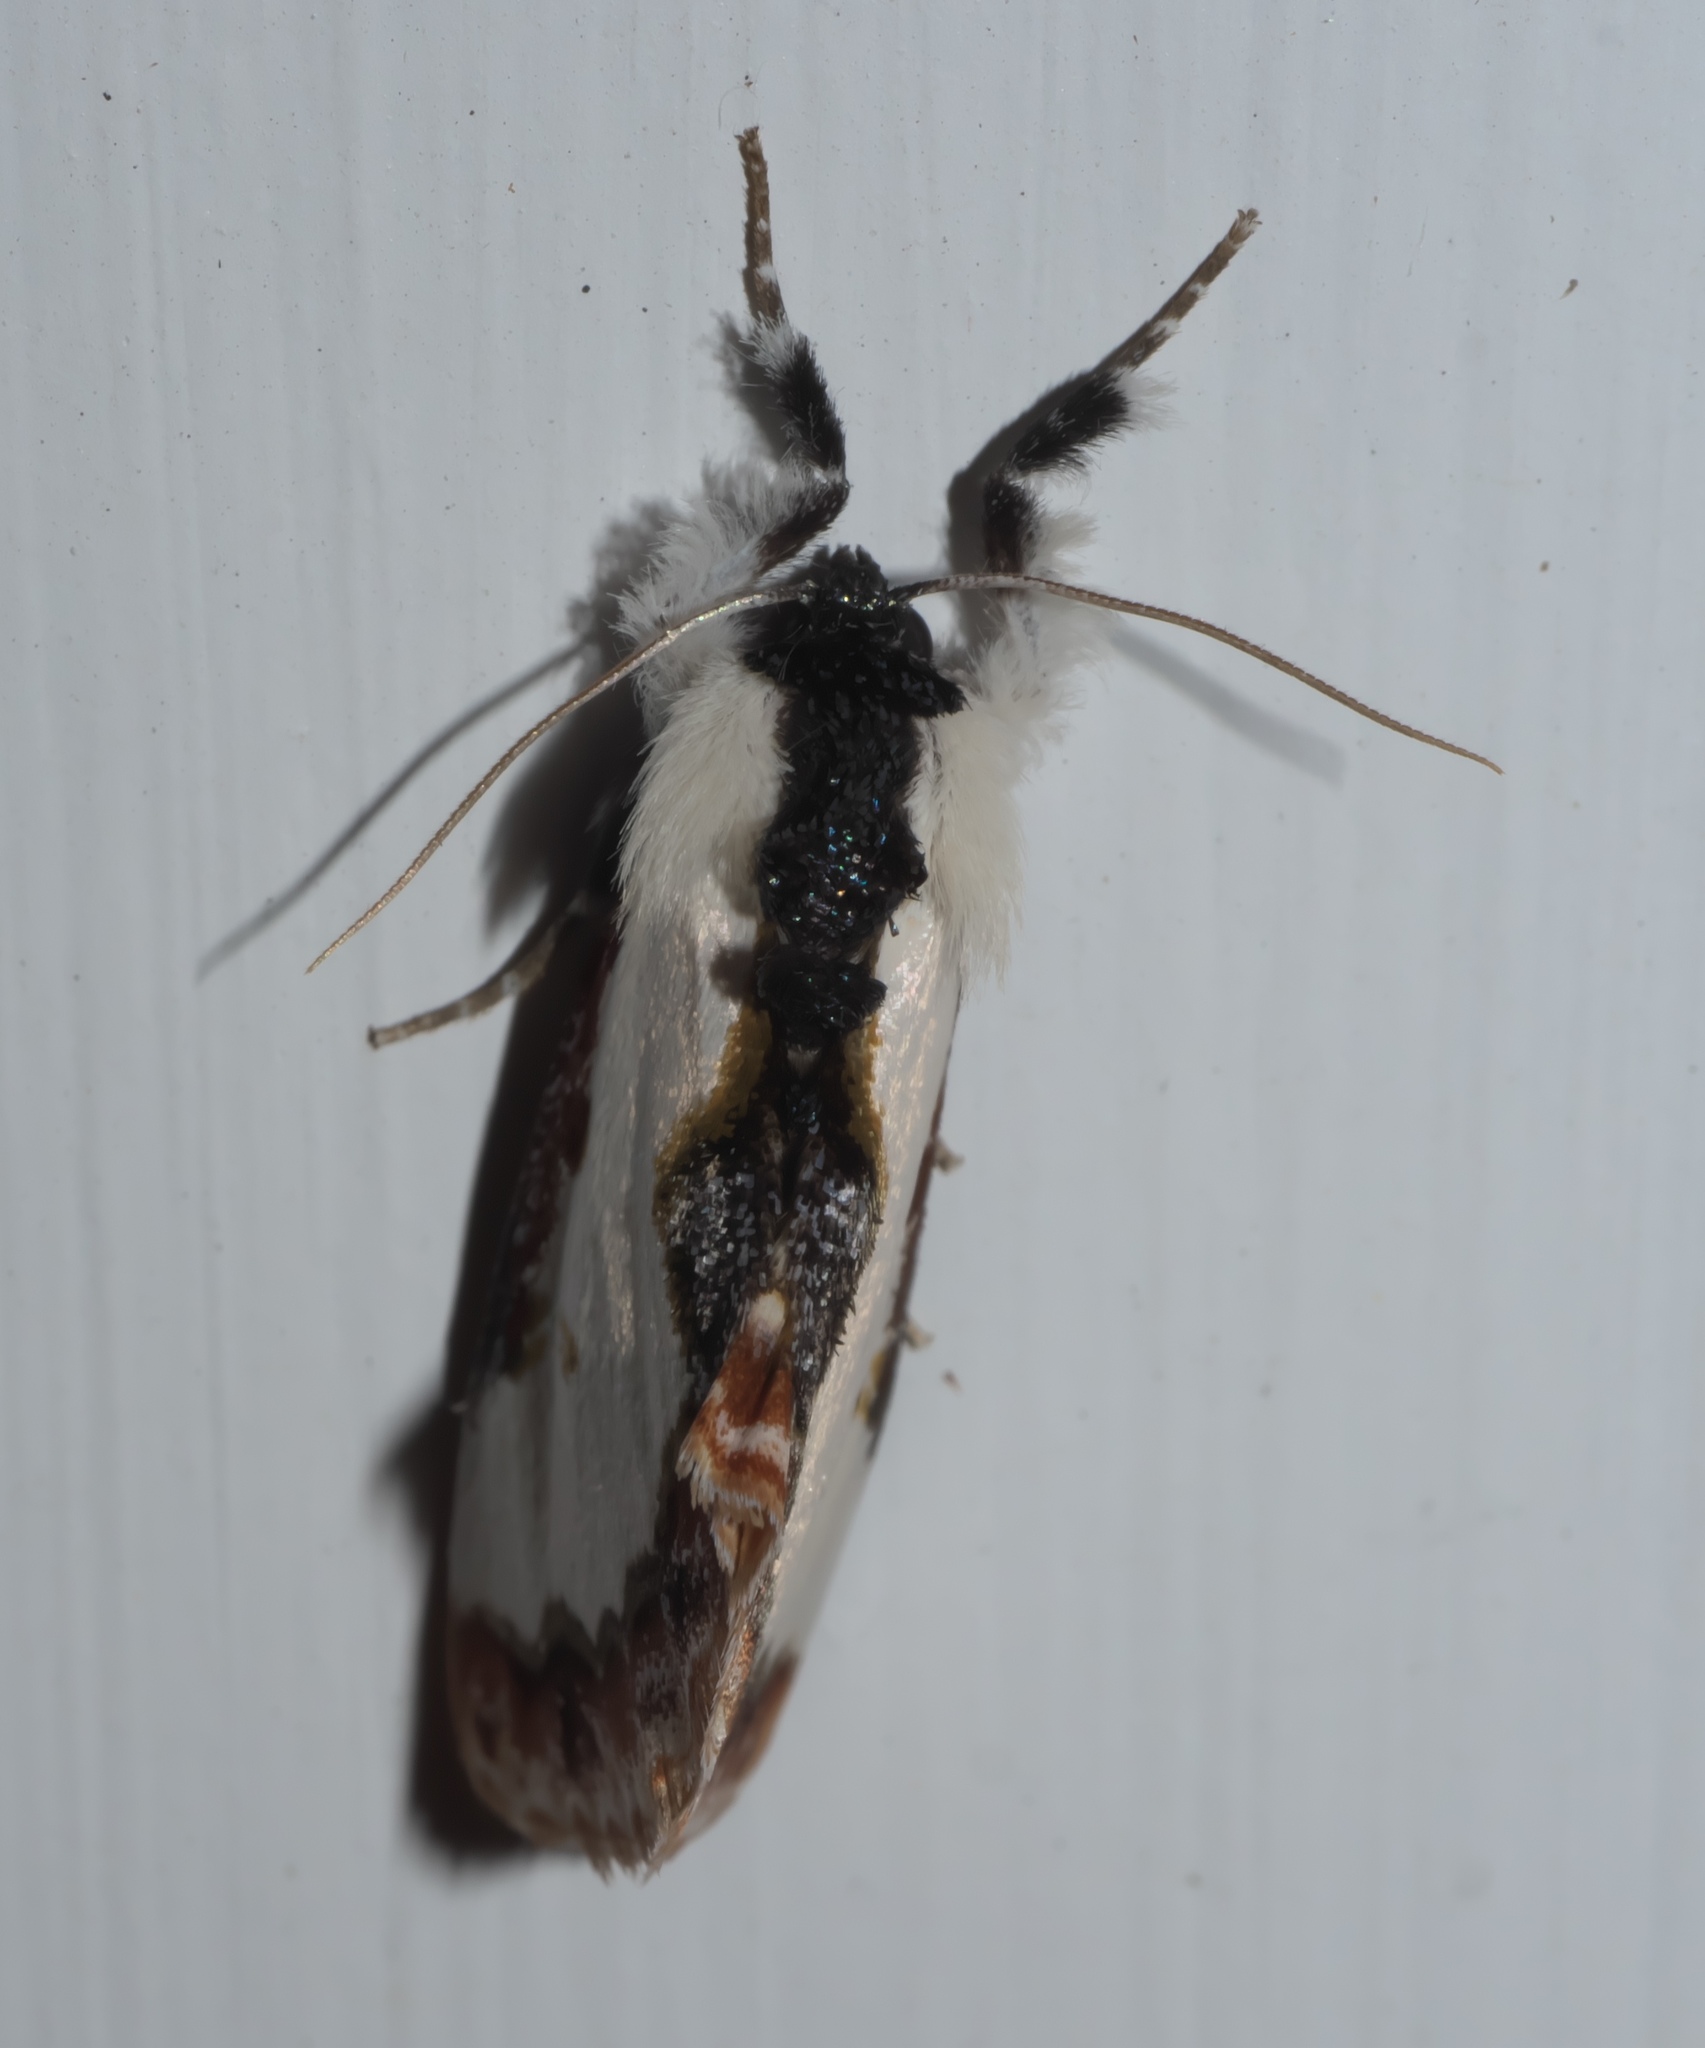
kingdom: Animalia
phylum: Arthropoda
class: Insecta
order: Lepidoptera
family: Noctuidae
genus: Eudryas
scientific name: Eudryas unio
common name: Pearly wood-nymph
